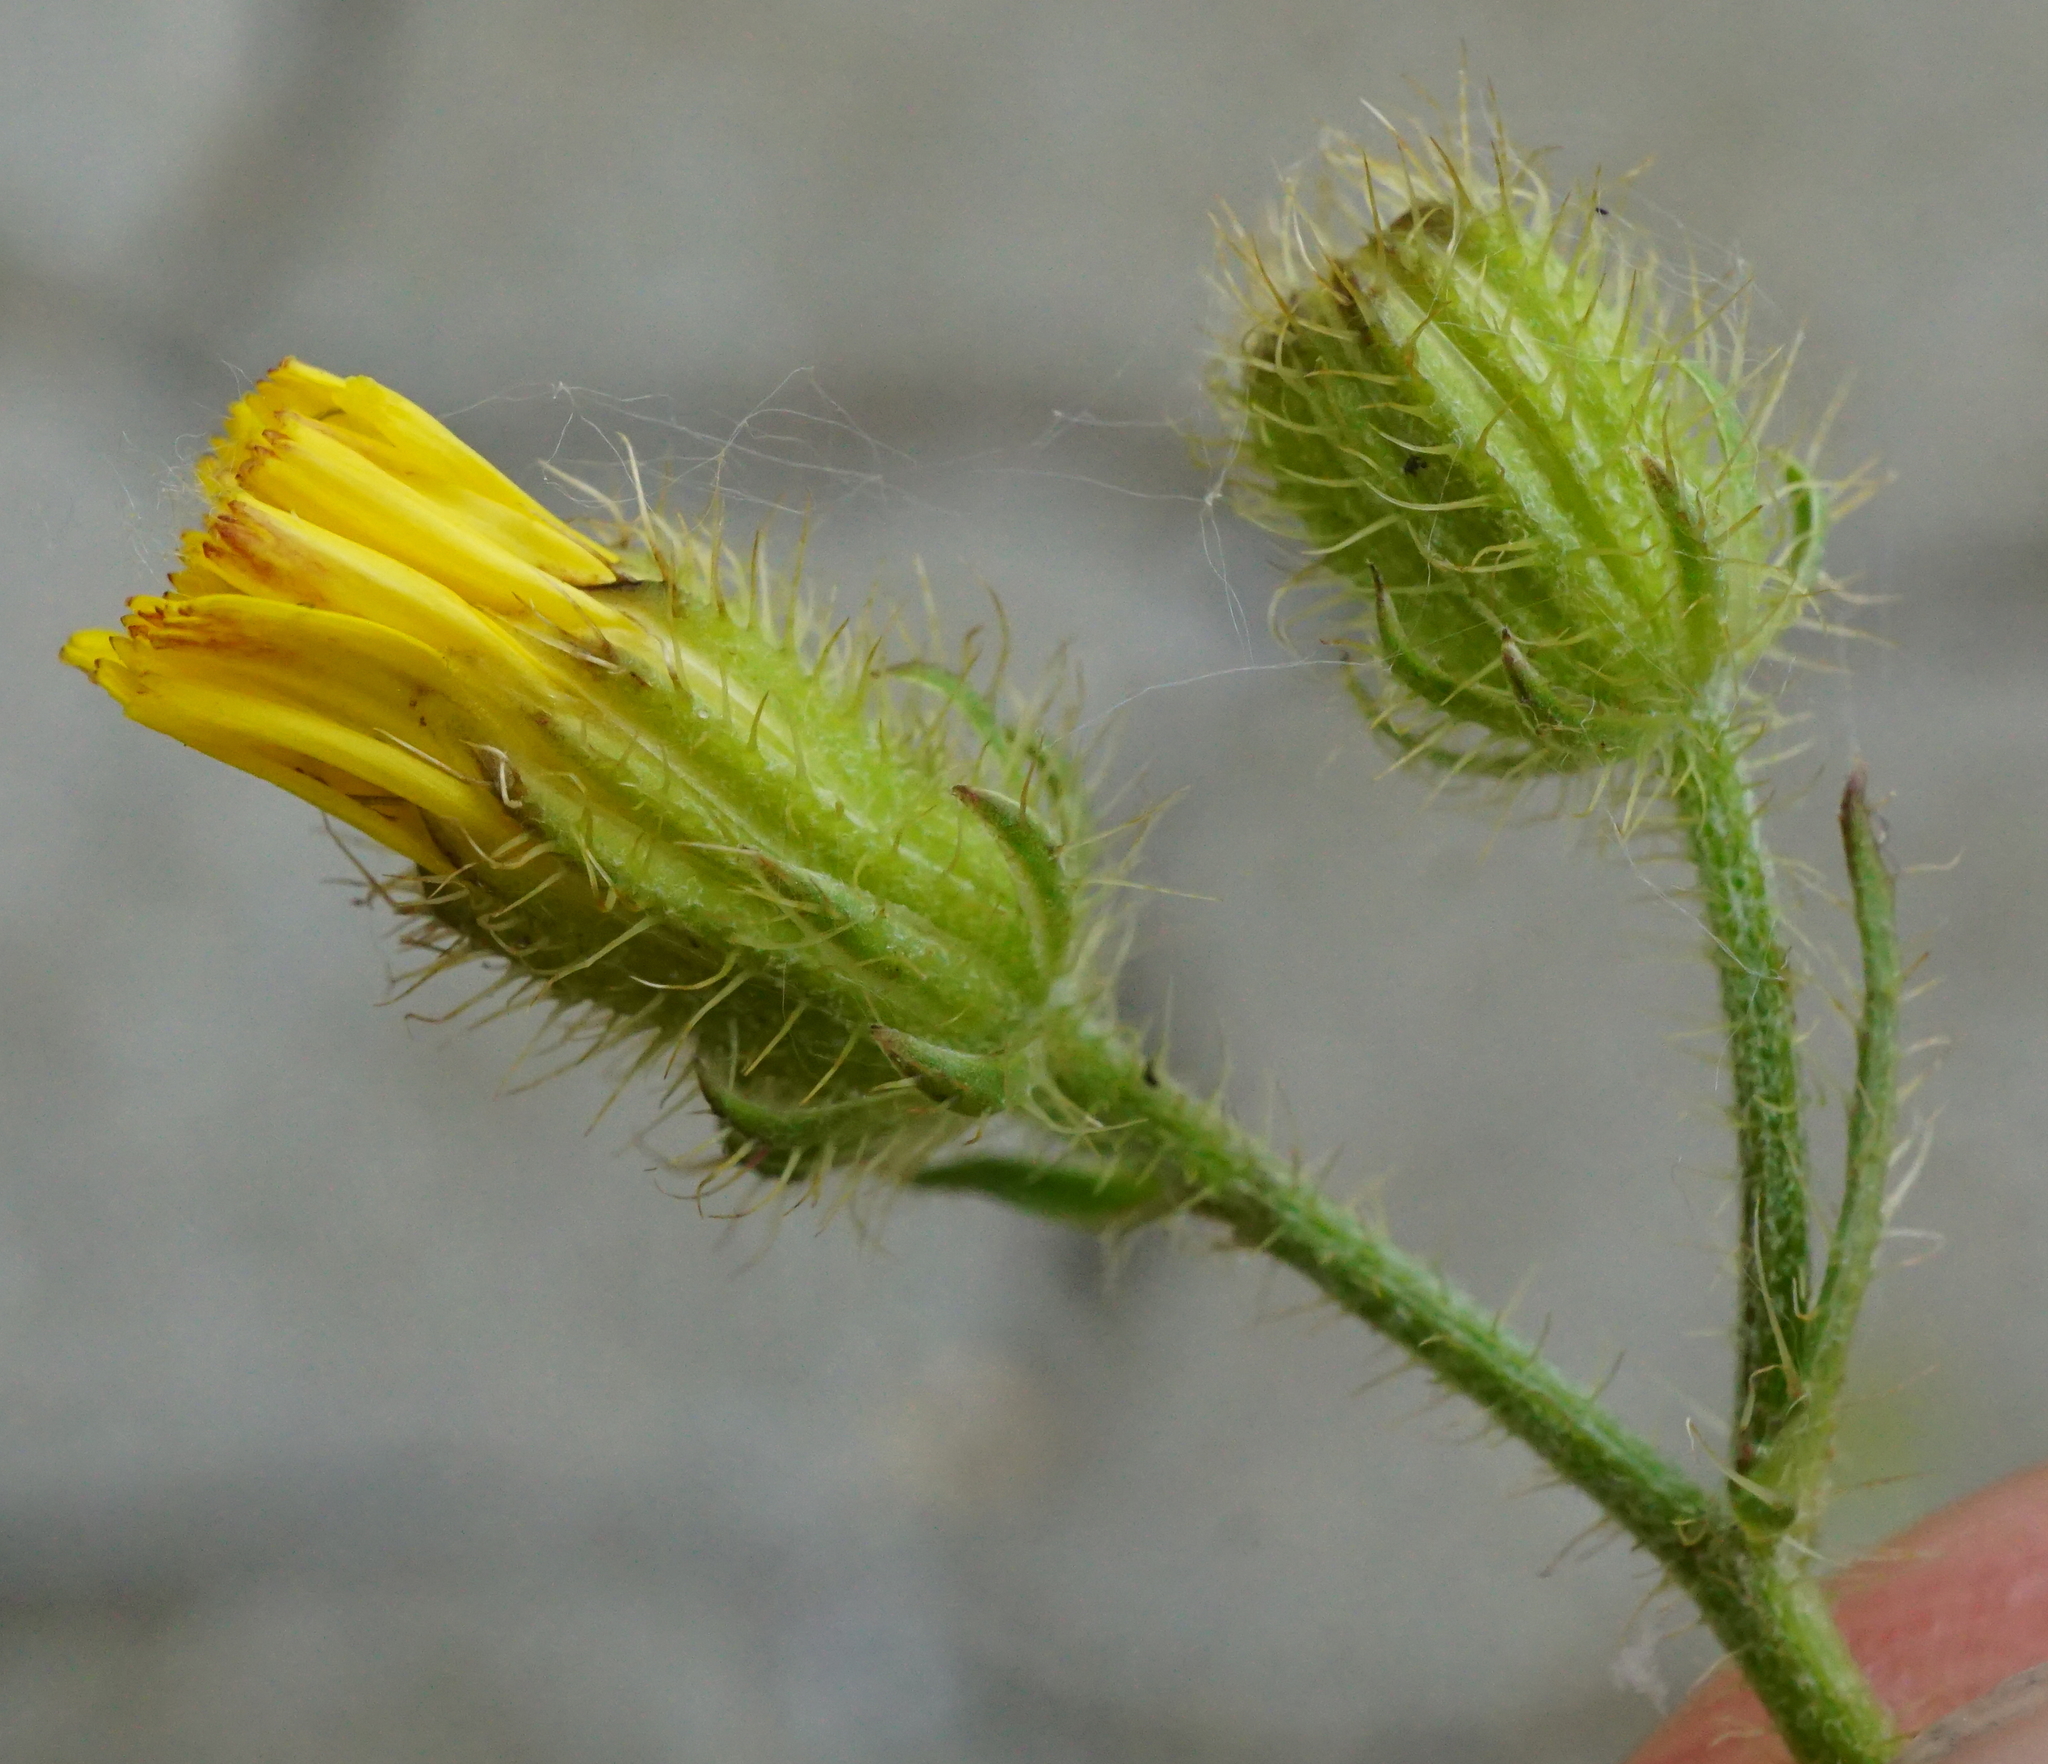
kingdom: Plantae
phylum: Tracheophyta
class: Magnoliopsida
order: Asterales
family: Asteraceae
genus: Crepis
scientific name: Crepis setosa
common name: Bristly hawk's-beard
